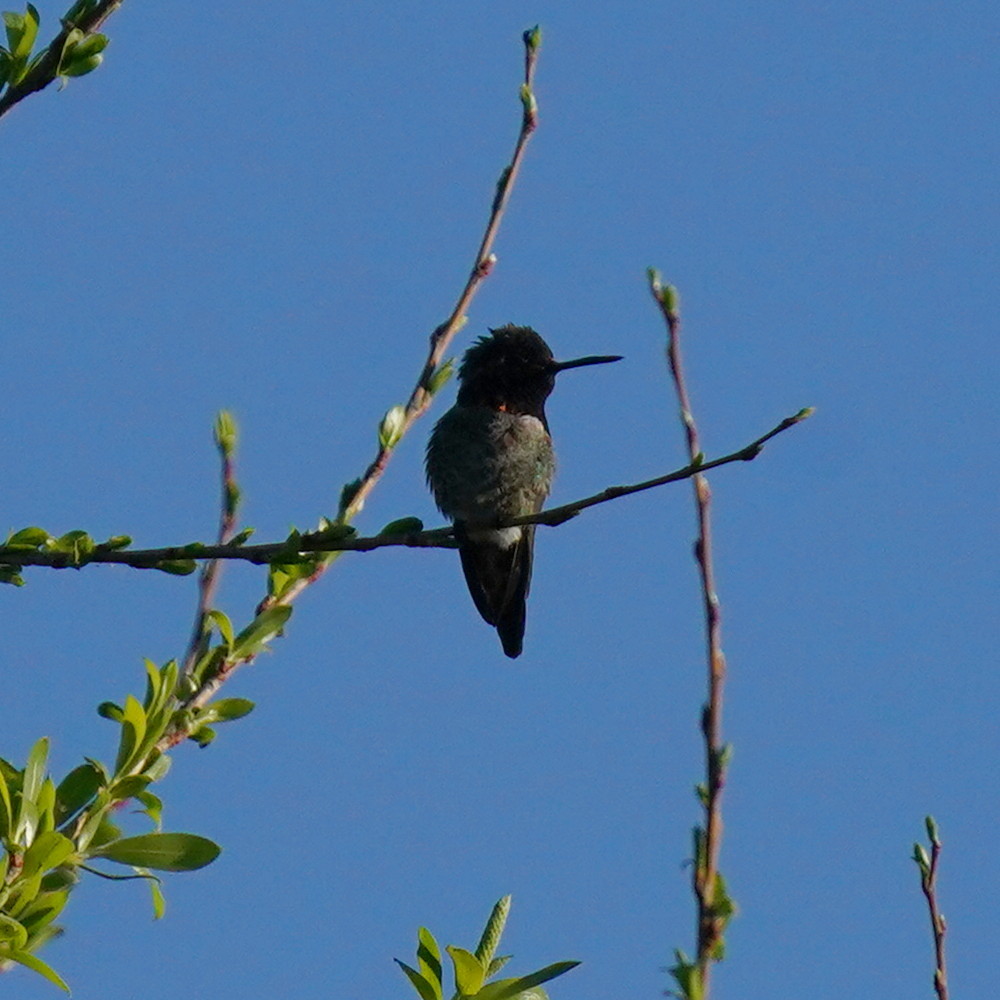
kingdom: Animalia
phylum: Chordata
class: Aves
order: Apodiformes
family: Trochilidae
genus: Calypte
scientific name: Calypte anna
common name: Anna's hummingbird
